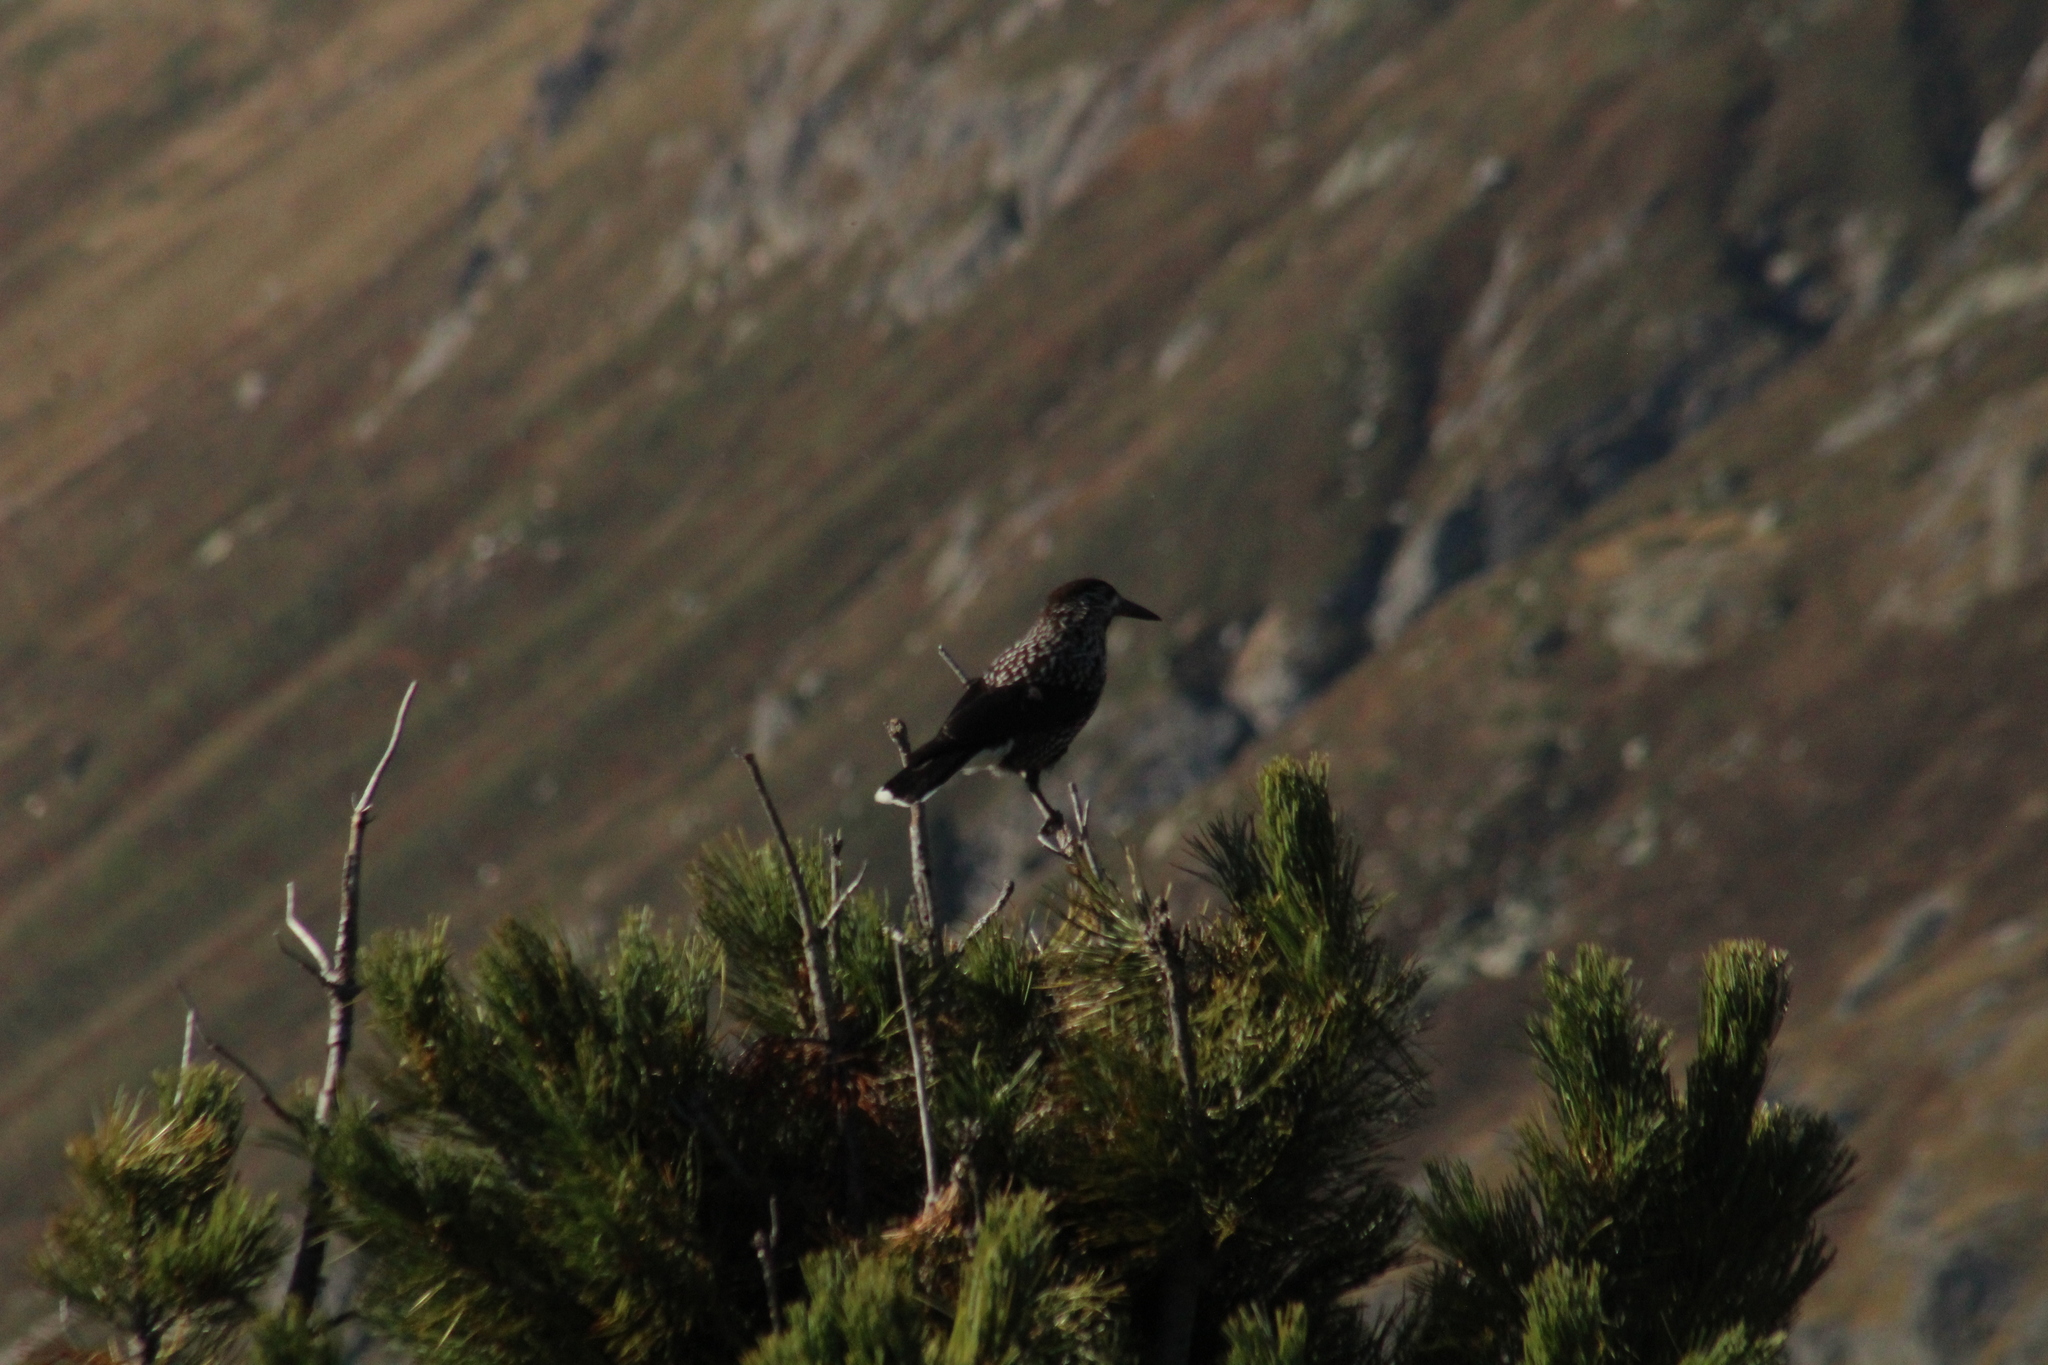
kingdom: Animalia
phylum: Chordata
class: Aves
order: Passeriformes
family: Corvidae
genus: Nucifraga
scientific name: Nucifraga caryocatactes
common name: Spotted nutcracker
